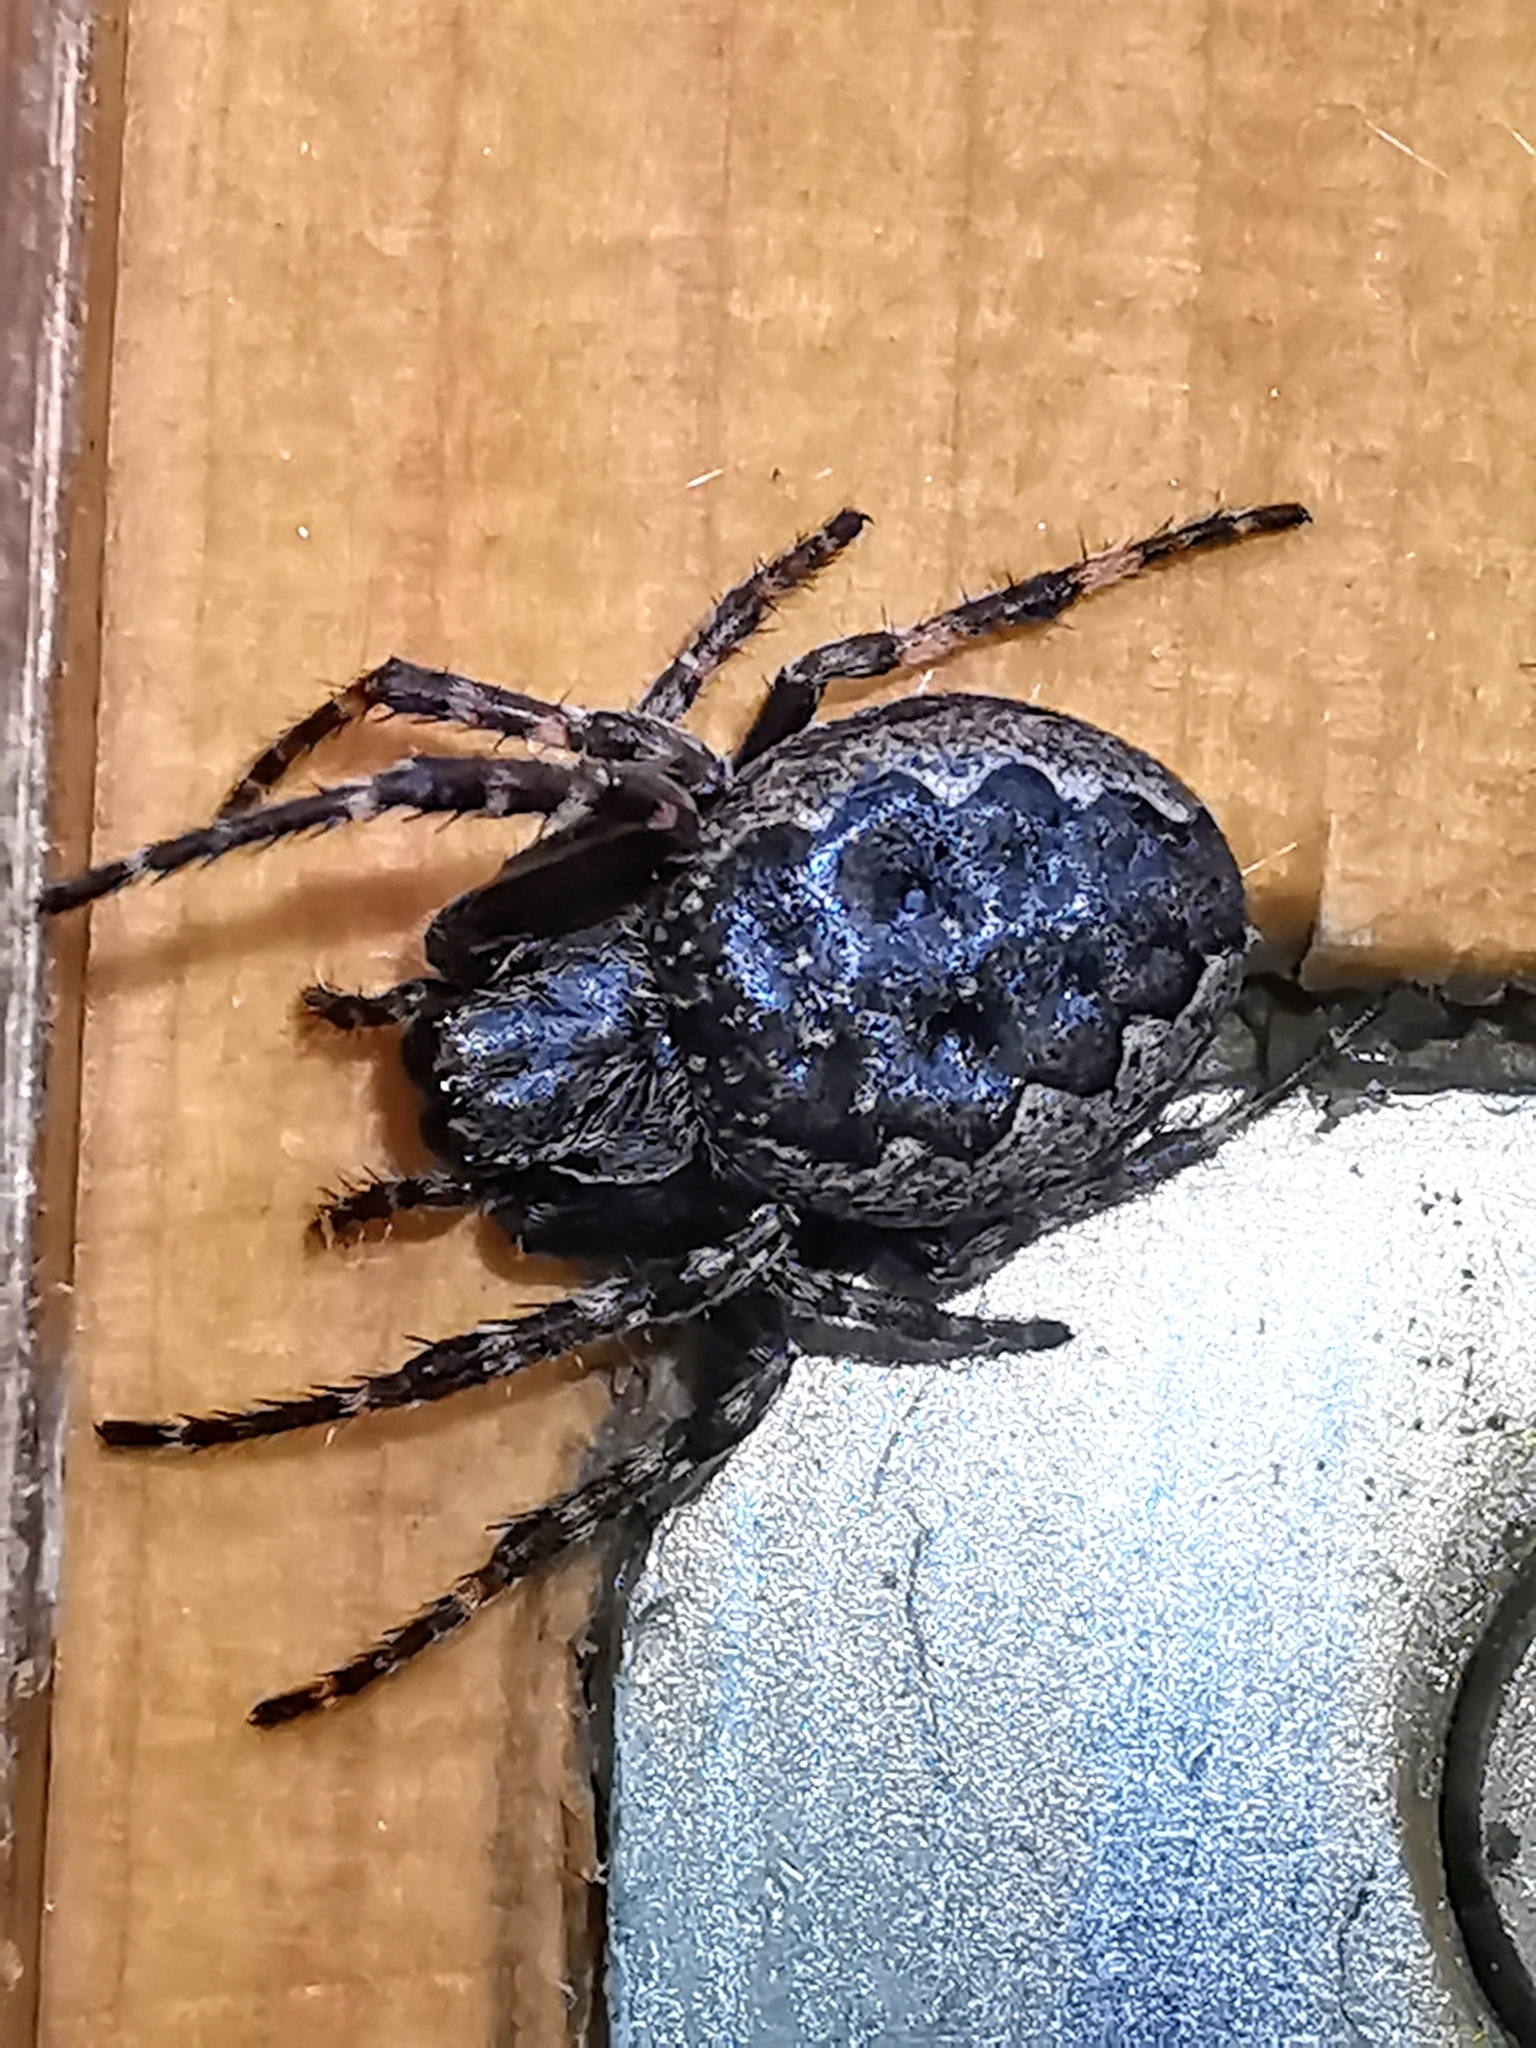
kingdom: Animalia
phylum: Arthropoda
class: Arachnida
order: Araneae
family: Araneidae
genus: Nuctenea
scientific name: Nuctenea umbratica
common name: Toad spider
